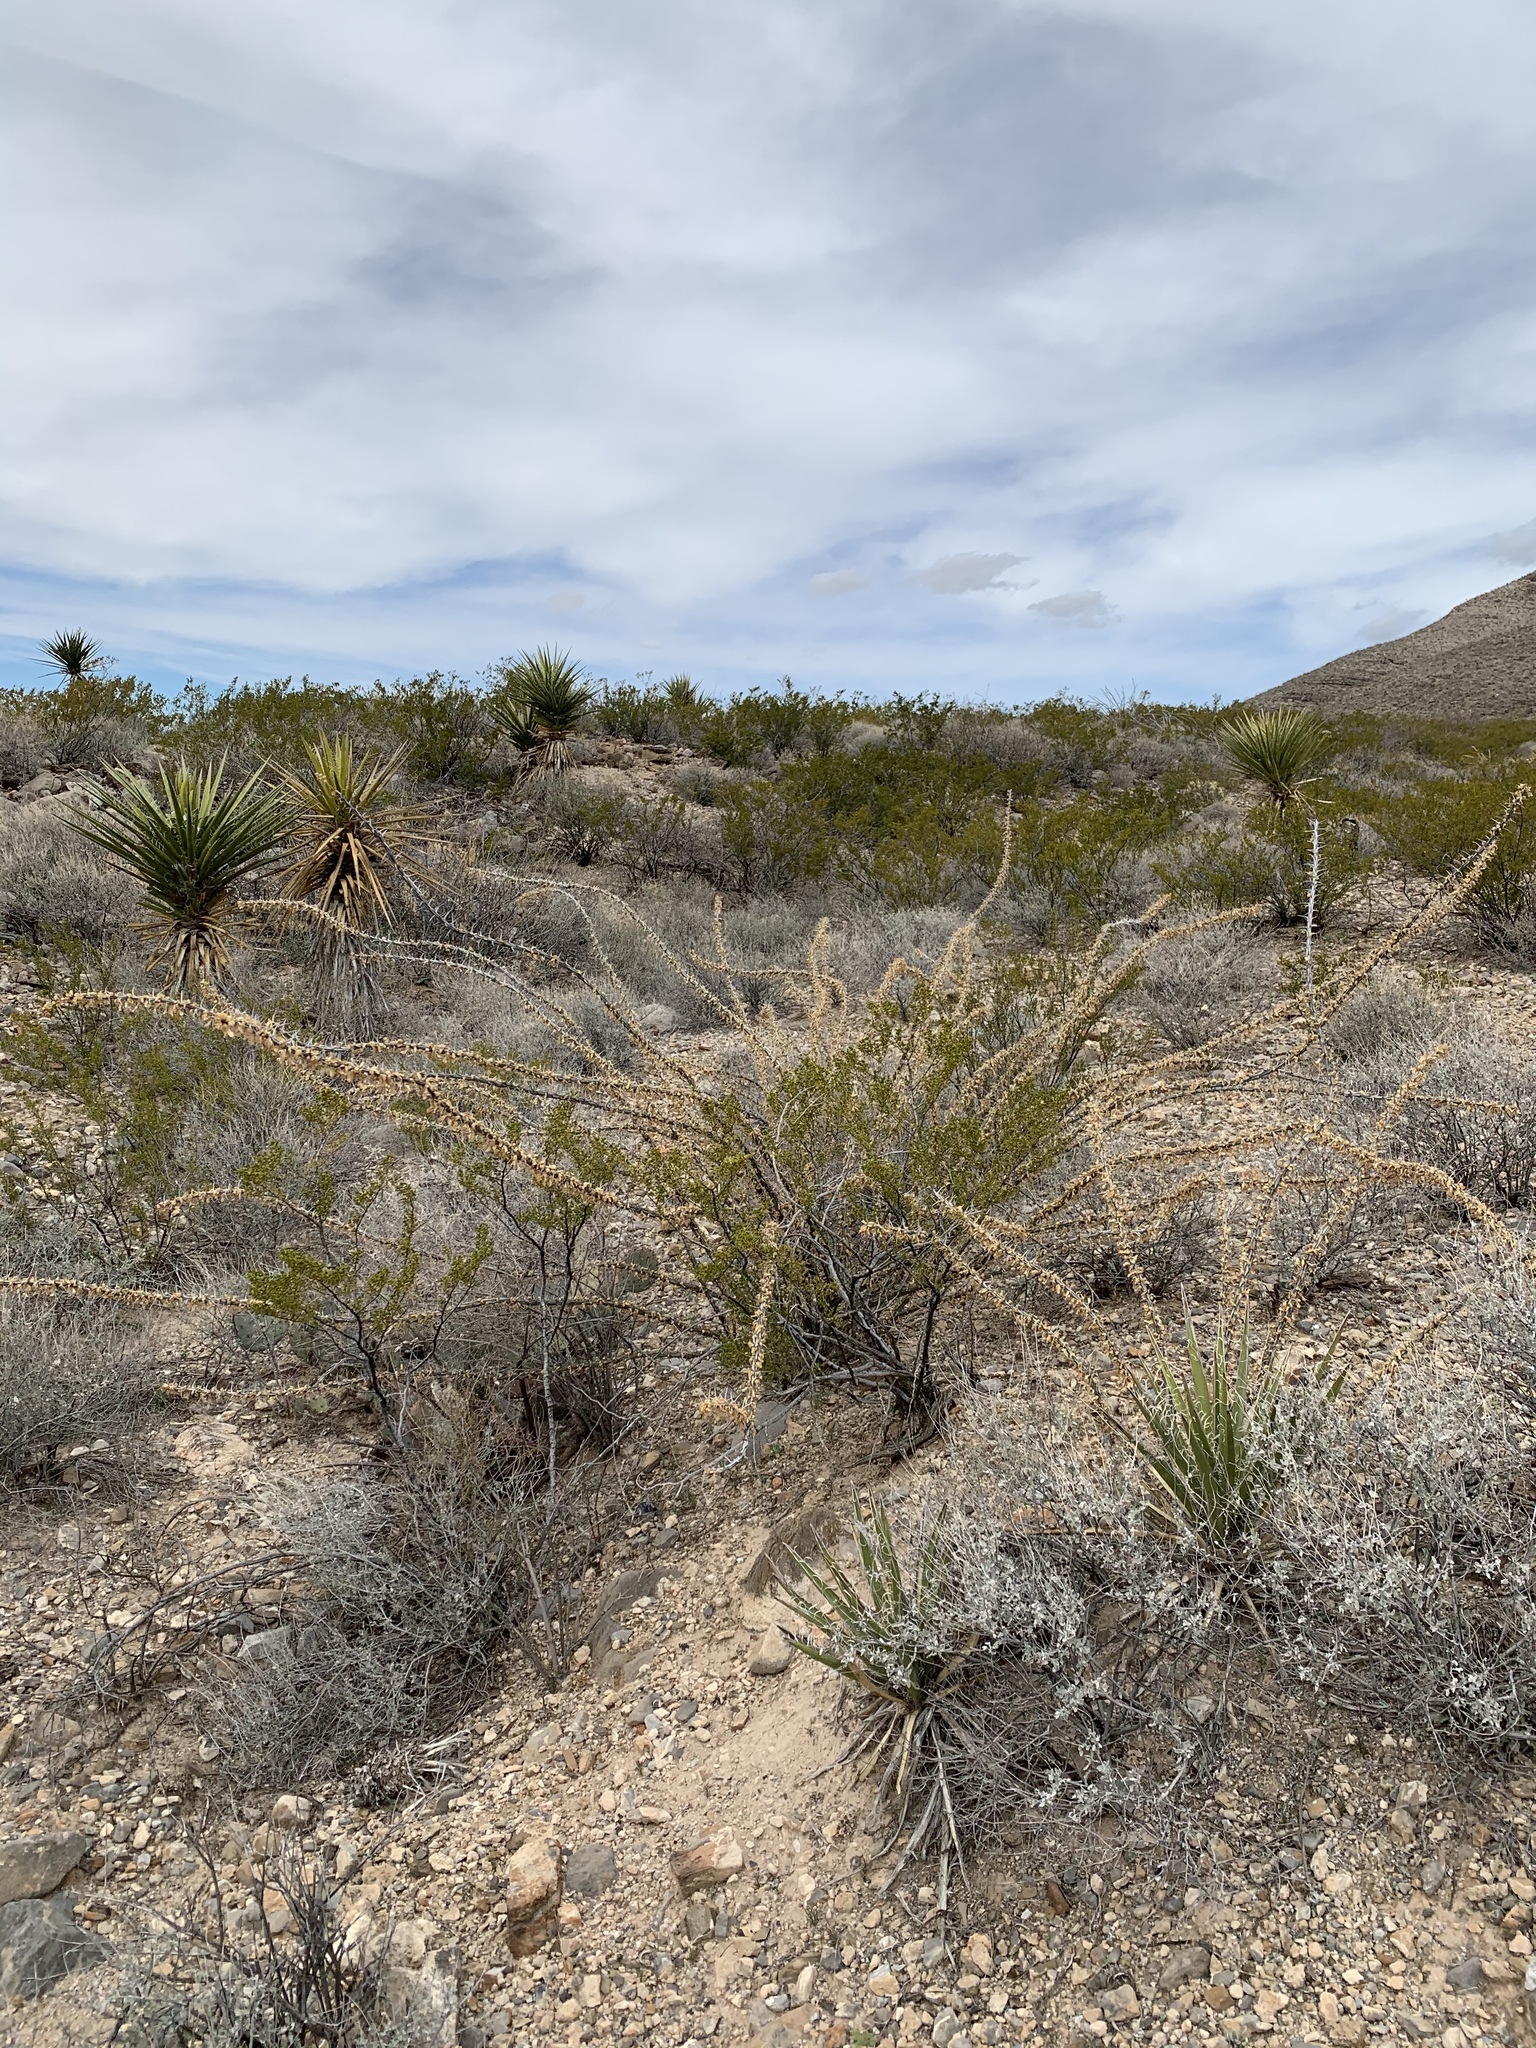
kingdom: Plantae
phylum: Tracheophyta
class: Magnoliopsida
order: Ericales
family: Fouquieriaceae
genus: Fouquieria
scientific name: Fouquieria splendens
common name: Vine-cactus
